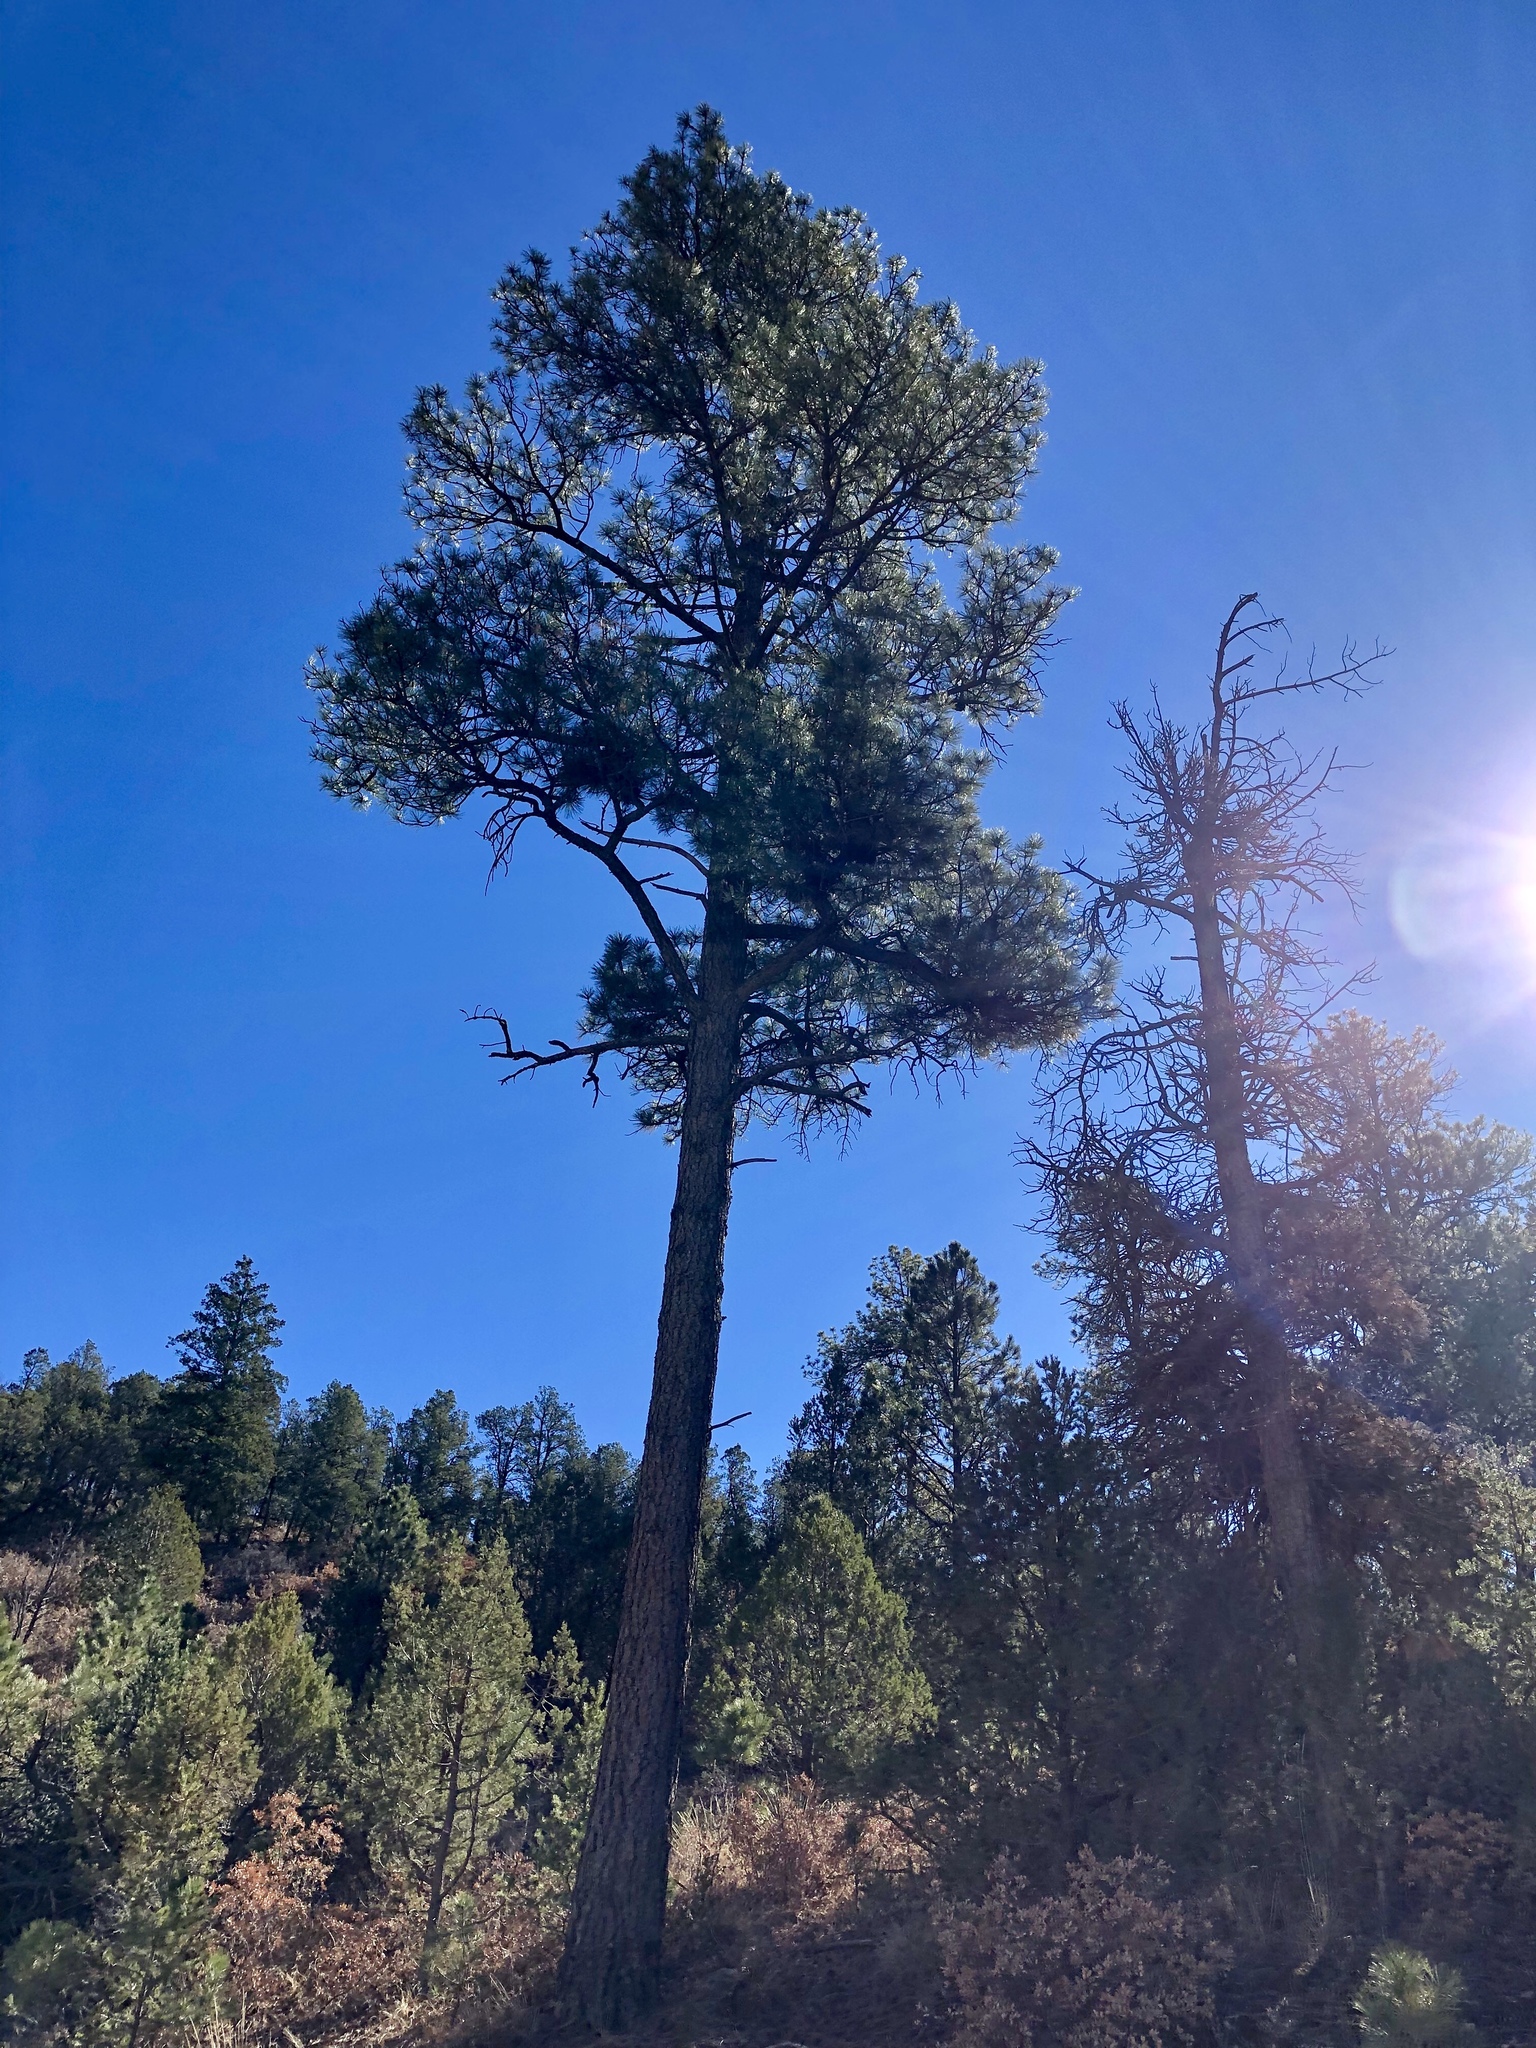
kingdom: Plantae
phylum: Tracheophyta
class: Pinopsida
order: Pinales
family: Pinaceae
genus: Pinus
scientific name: Pinus ponderosa
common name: Western yellow-pine
